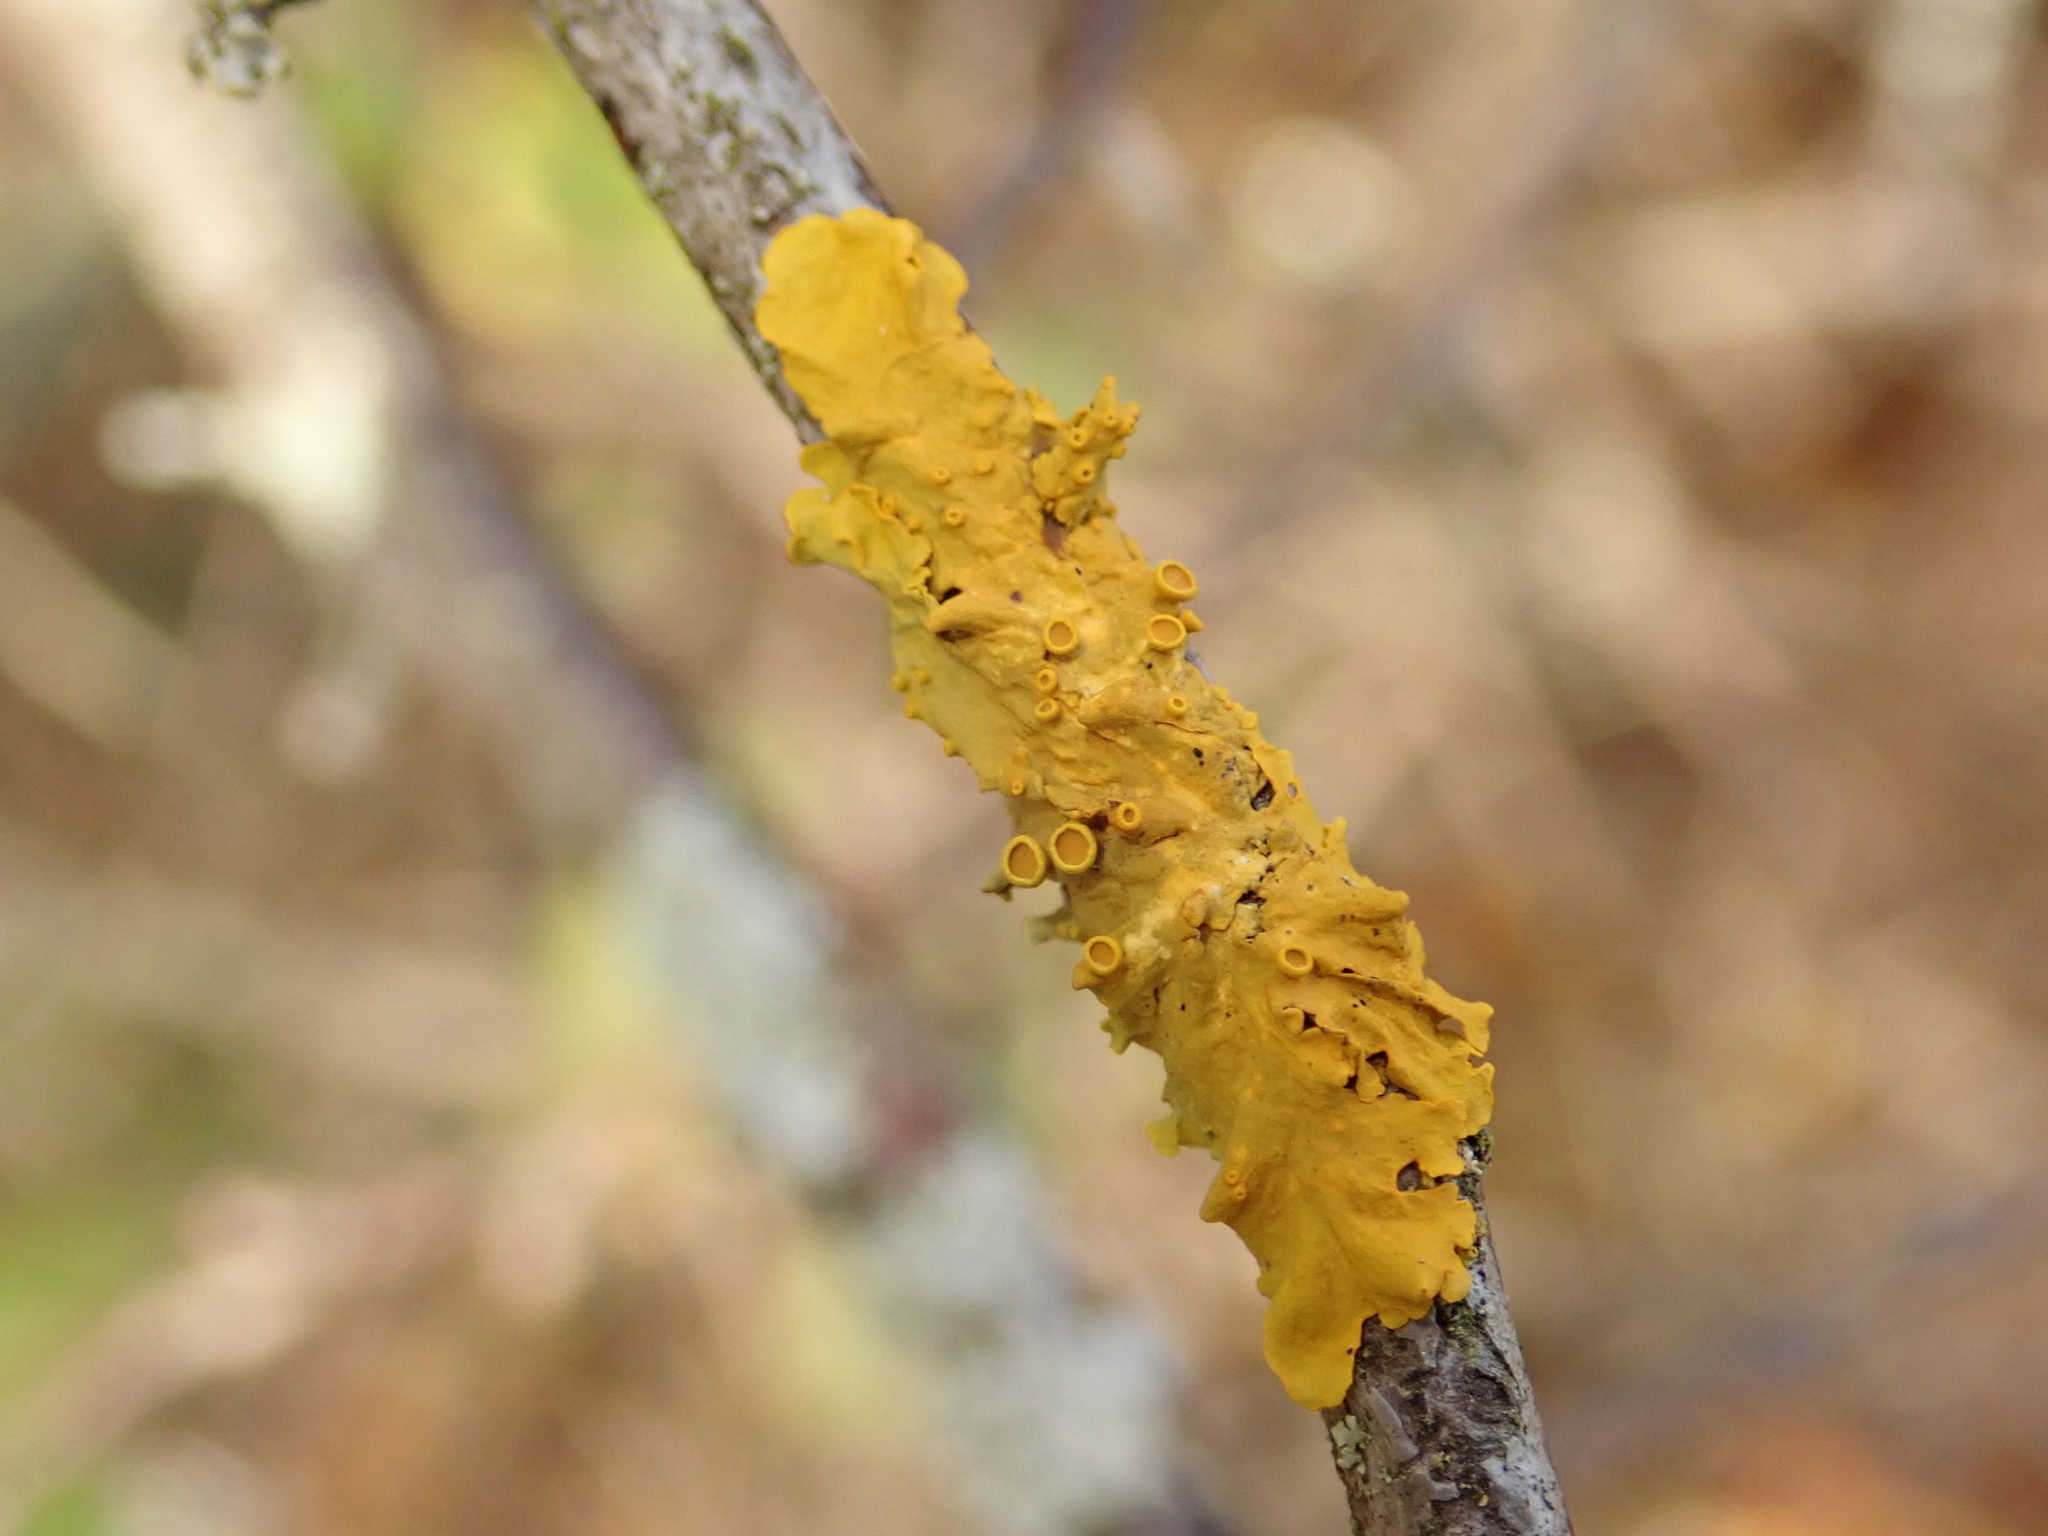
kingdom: Fungi
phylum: Ascomycota
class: Lecanoromycetes
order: Teloschistales
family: Teloschistaceae
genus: Xanthoria
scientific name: Xanthoria parietina
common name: Common orange lichen
